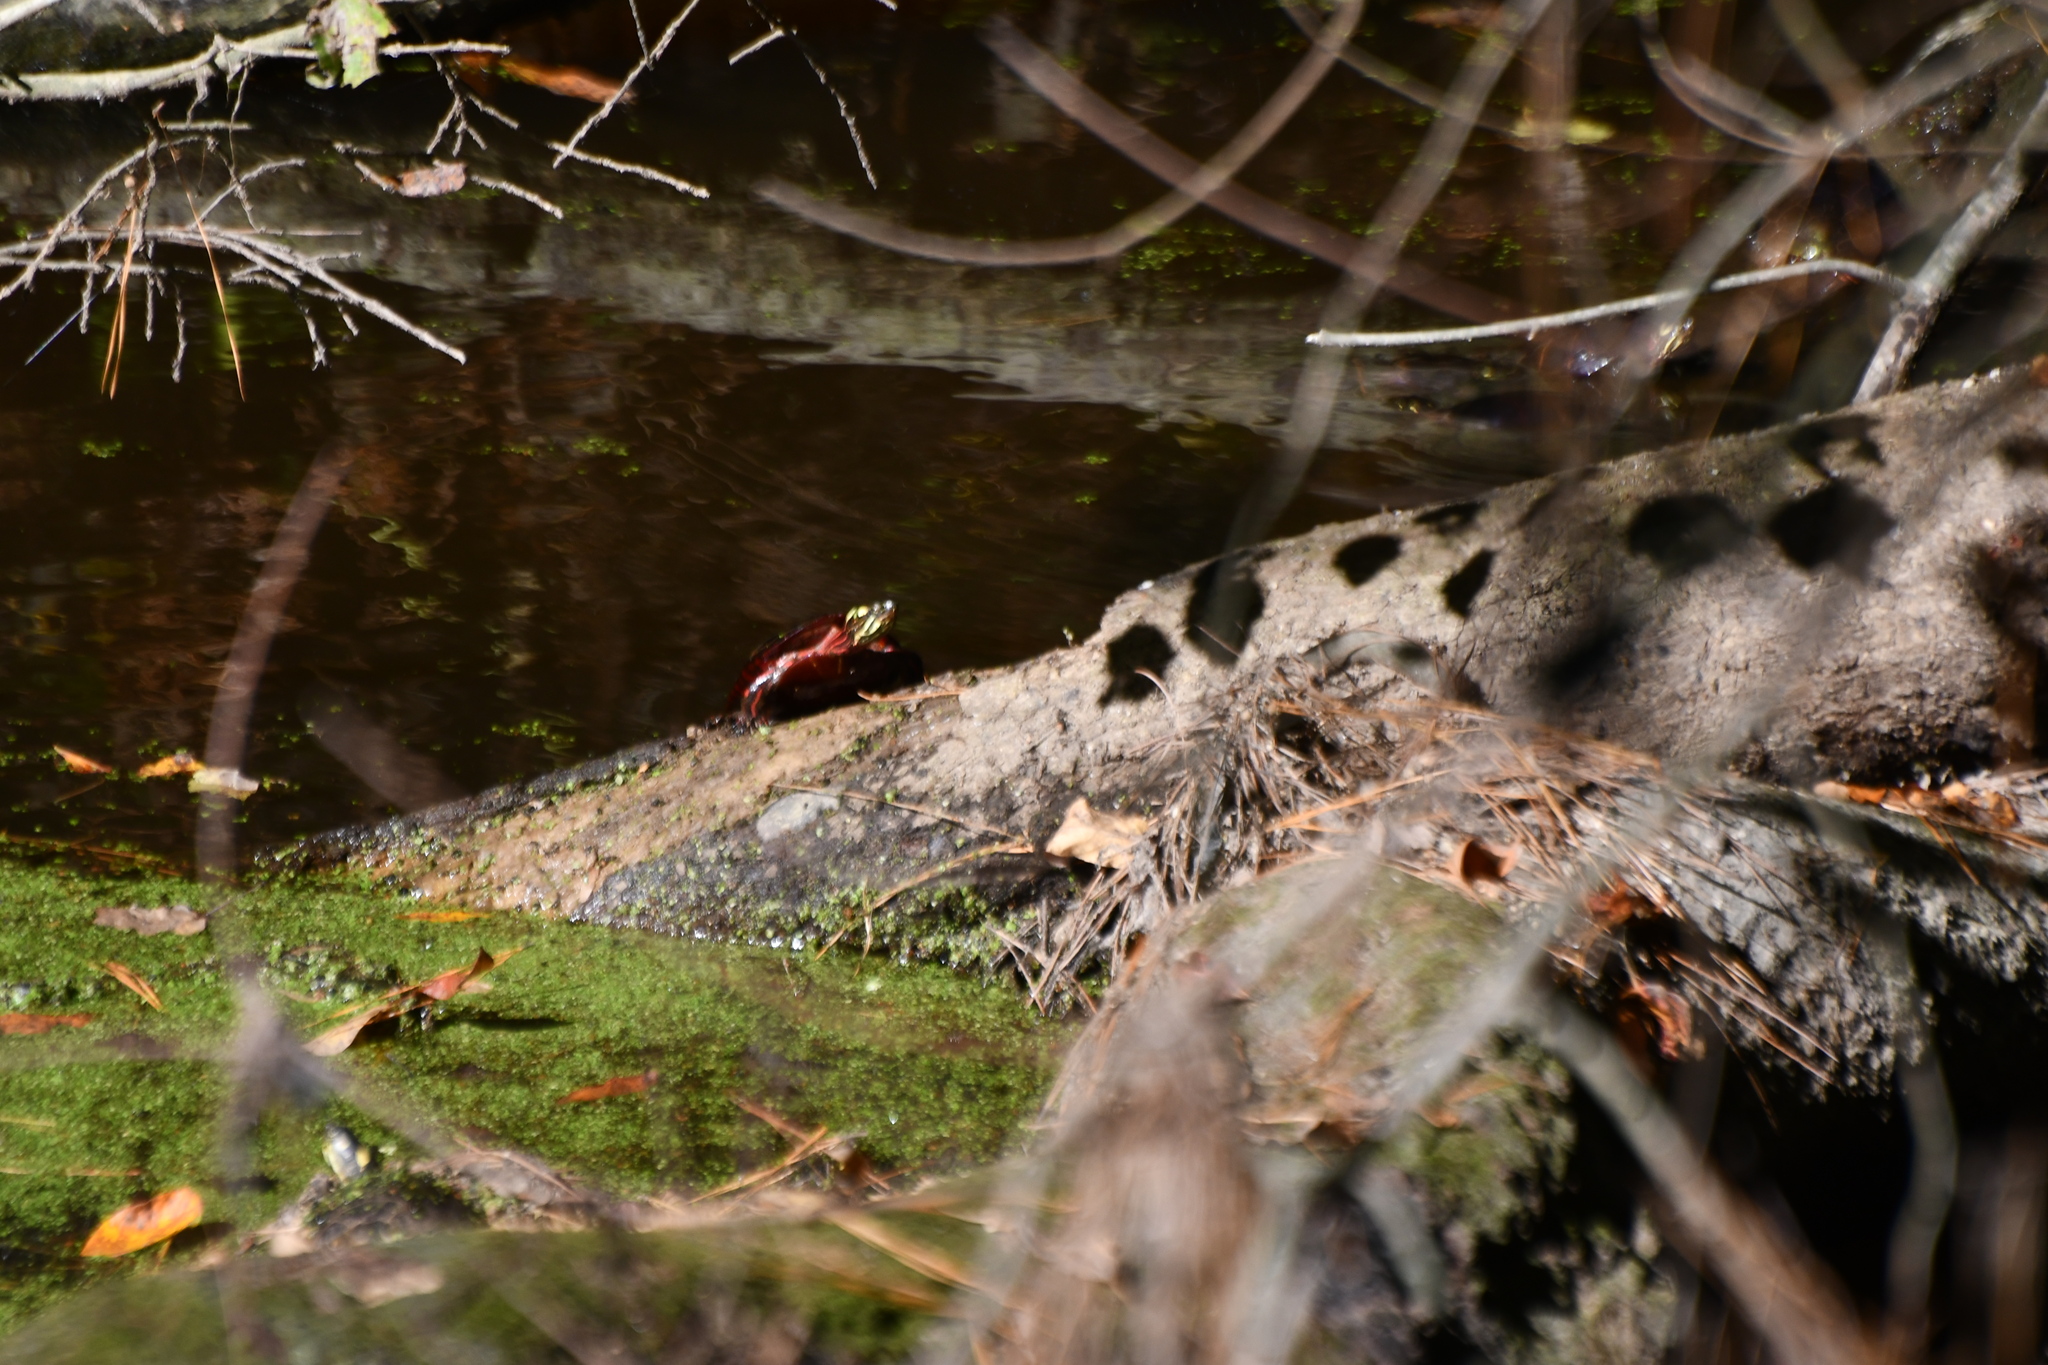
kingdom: Animalia
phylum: Chordata
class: Testudines
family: Emydidae
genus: Chrysemys
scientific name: Chrysemys picta
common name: Painted turtle
